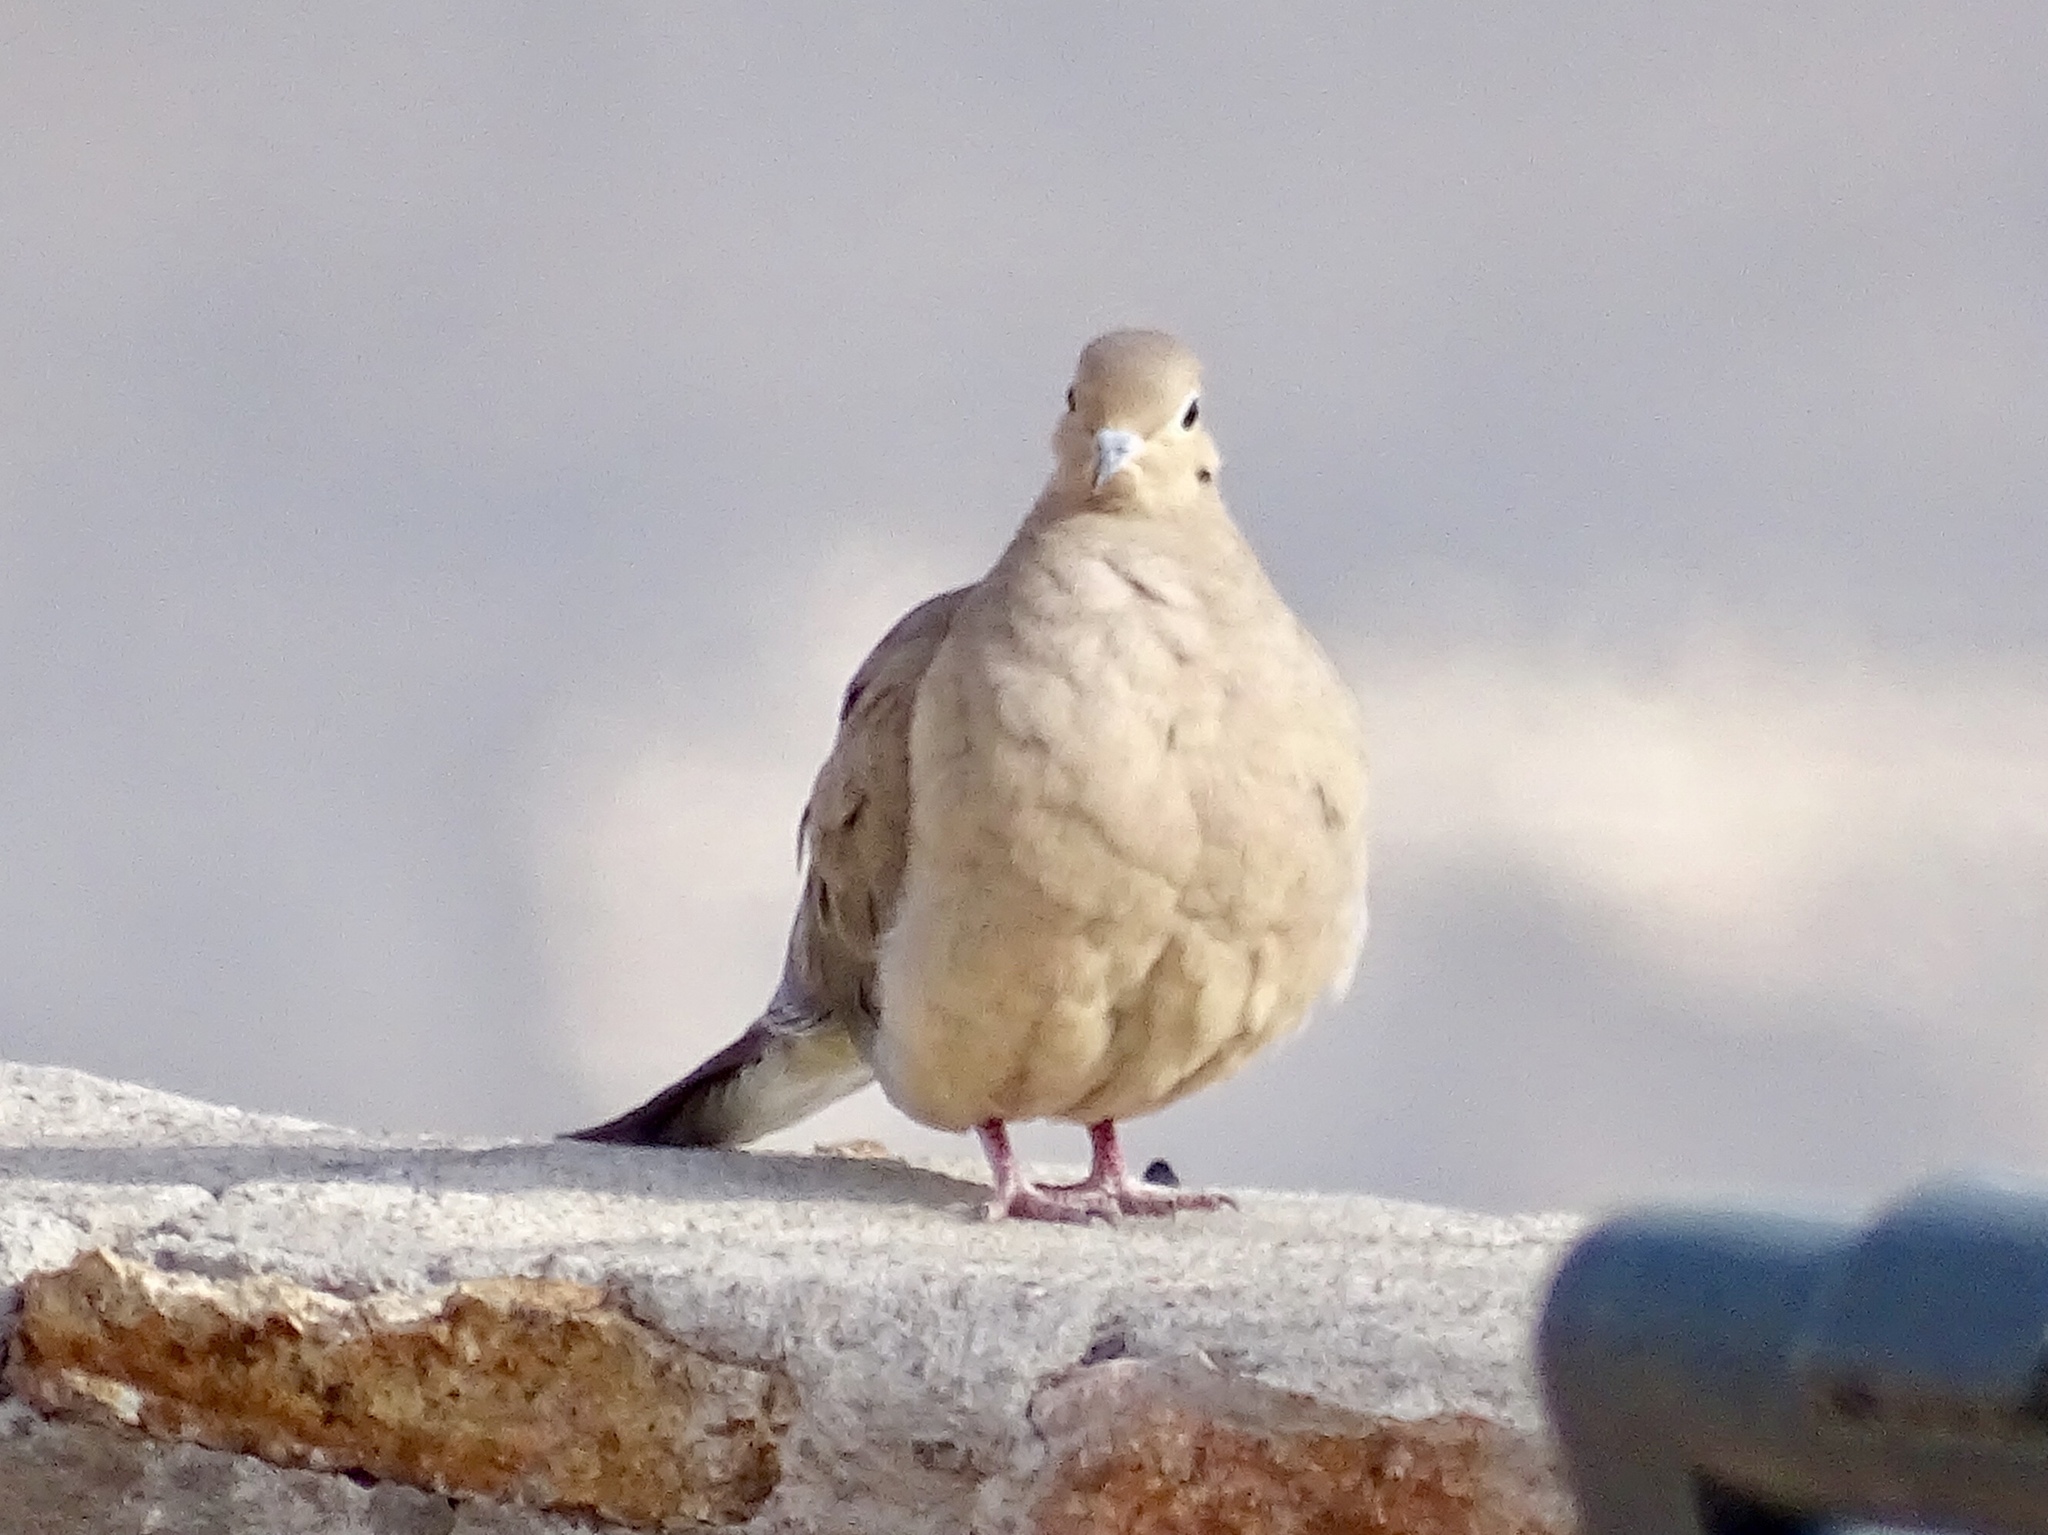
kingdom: Animalia
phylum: Chordata
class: Aves
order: Columbiformes
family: Columbidae
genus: Zenaida
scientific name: Zenaida macroura
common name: Mourning dove
